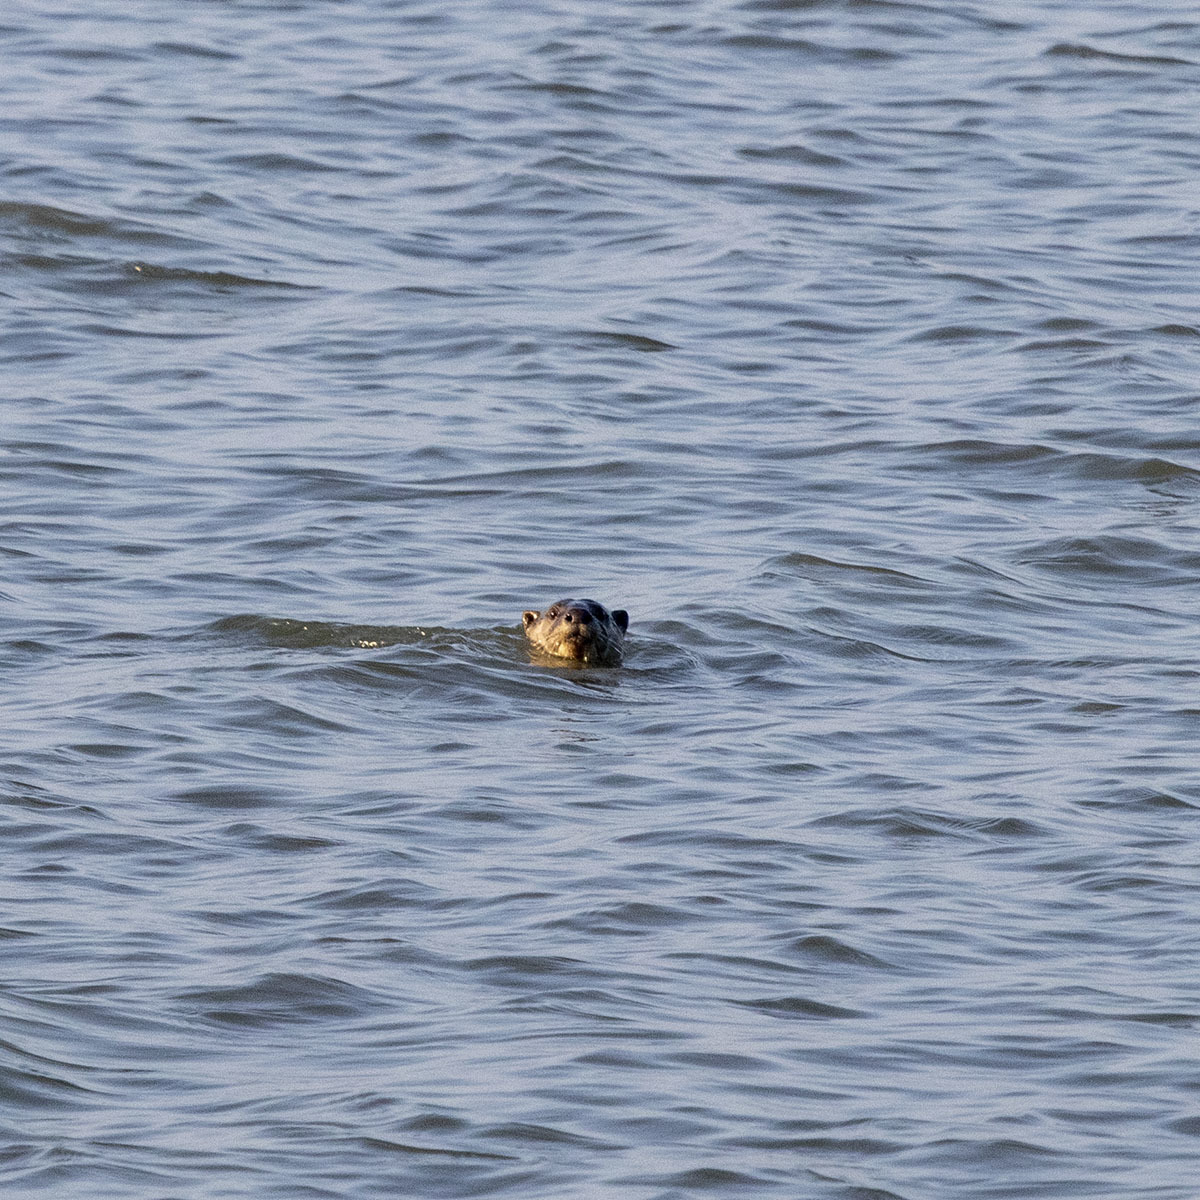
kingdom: Animalia
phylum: Chordata
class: Mammalia
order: Carnivora
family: Mustelidae
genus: Lutrogale
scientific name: Lutrogale perspicillata
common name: Smooth-coated otter
